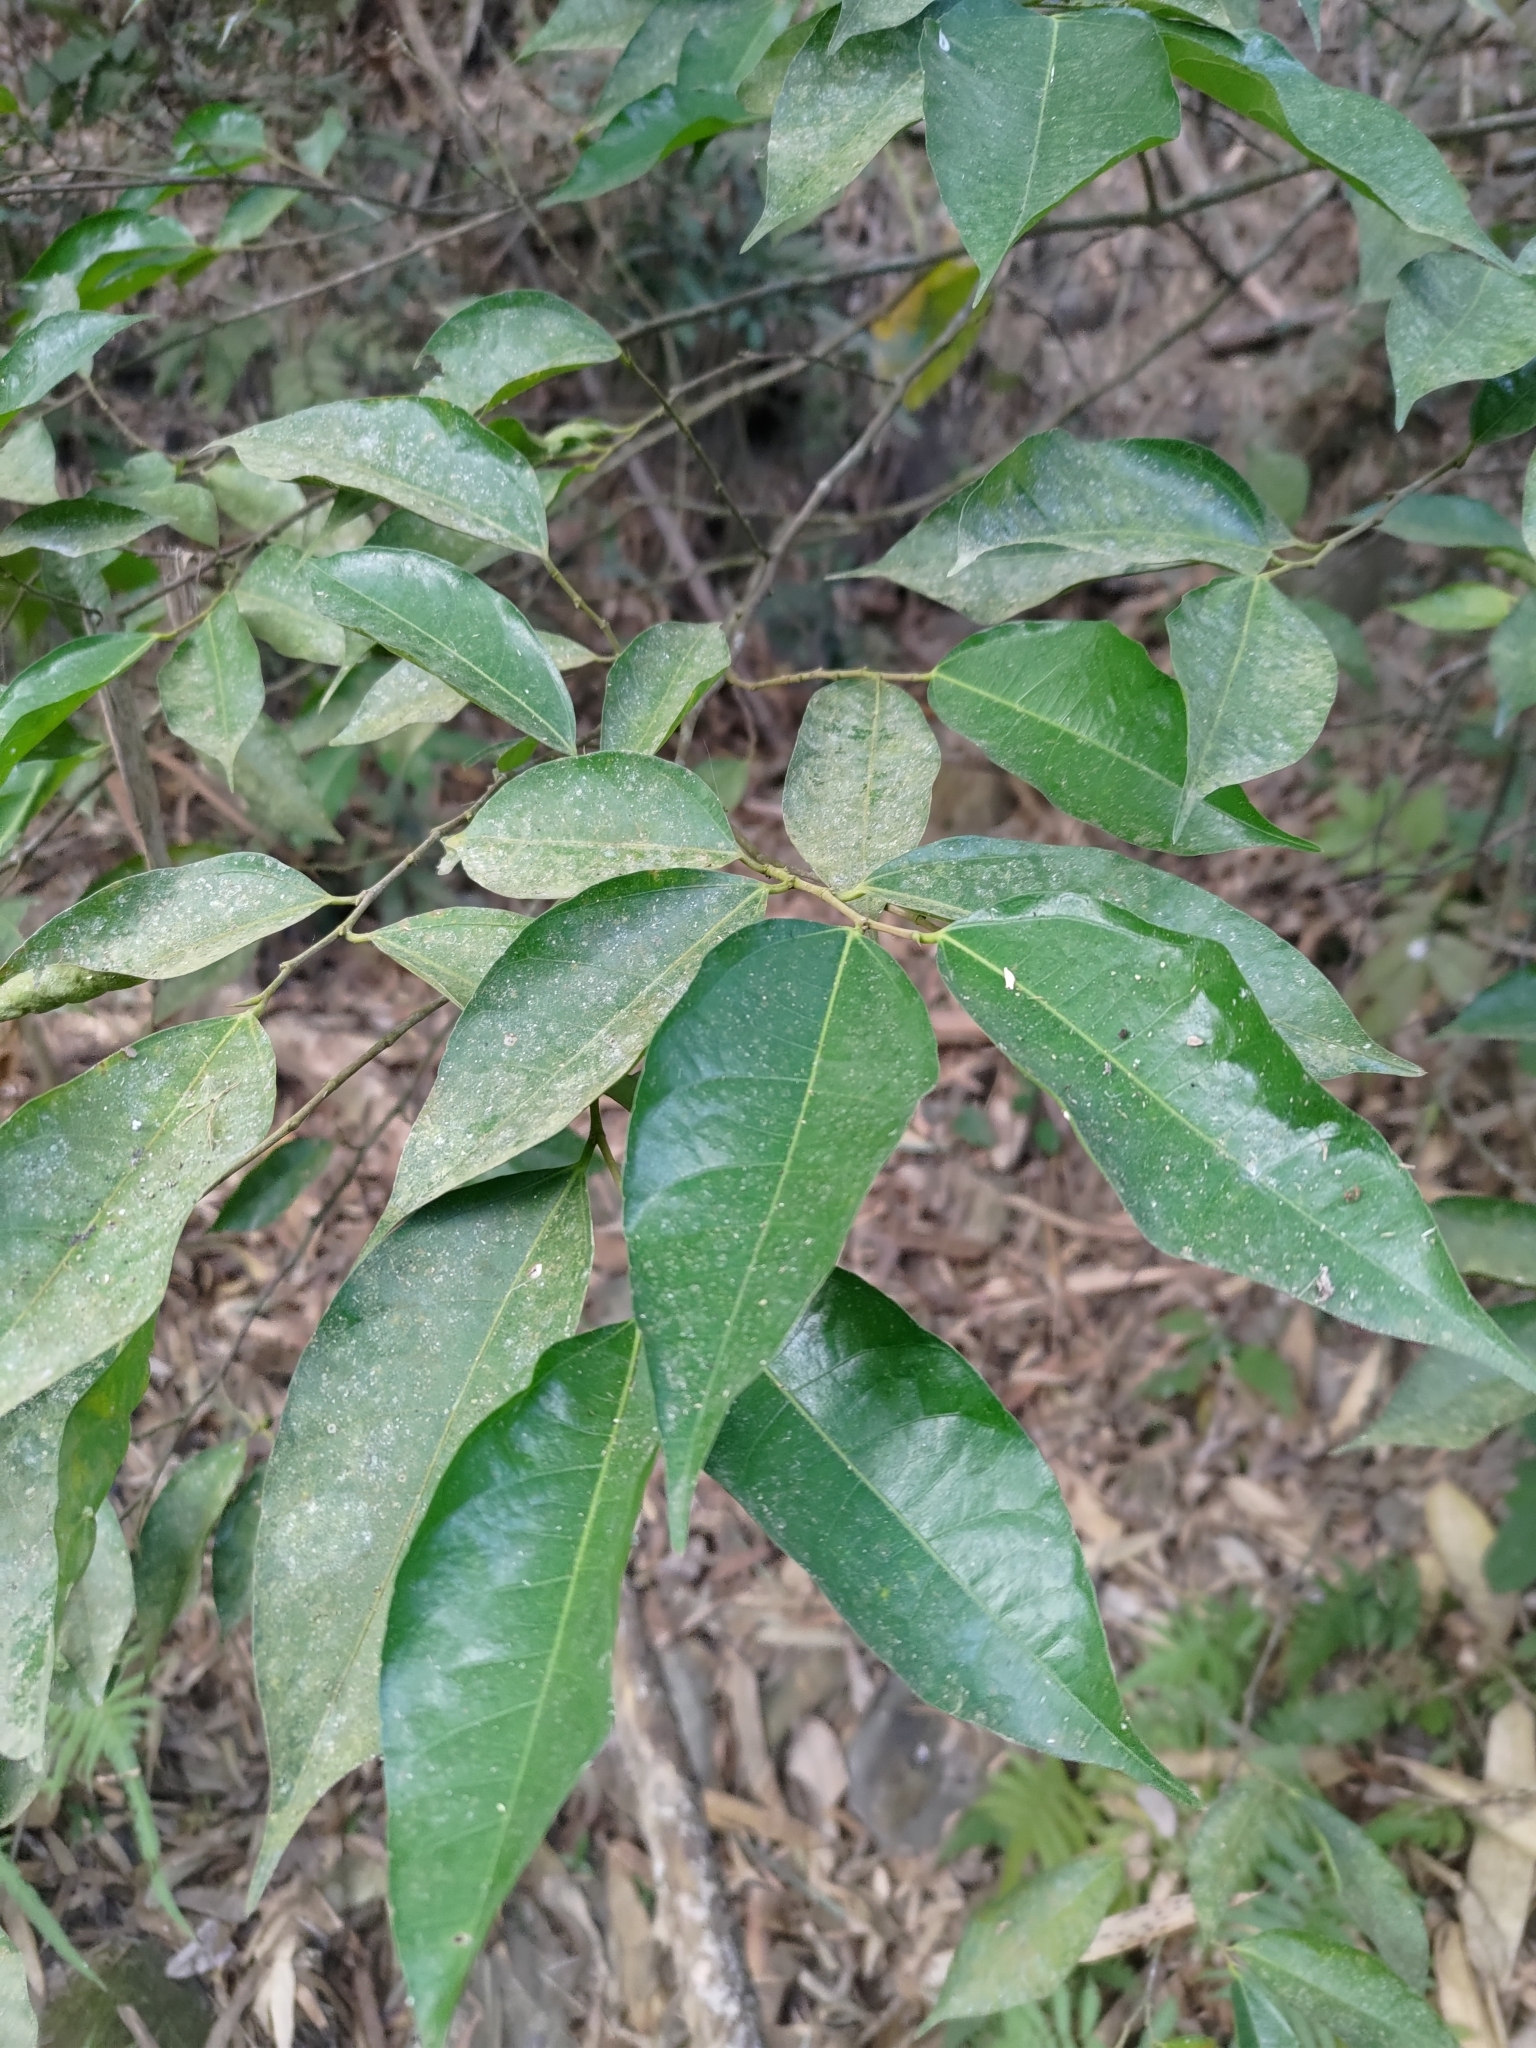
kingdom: Plantae
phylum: Tracheophyta
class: Magnoliopsida
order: Rosales
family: Moraceae
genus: Ficus
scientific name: Ficus ampelos
